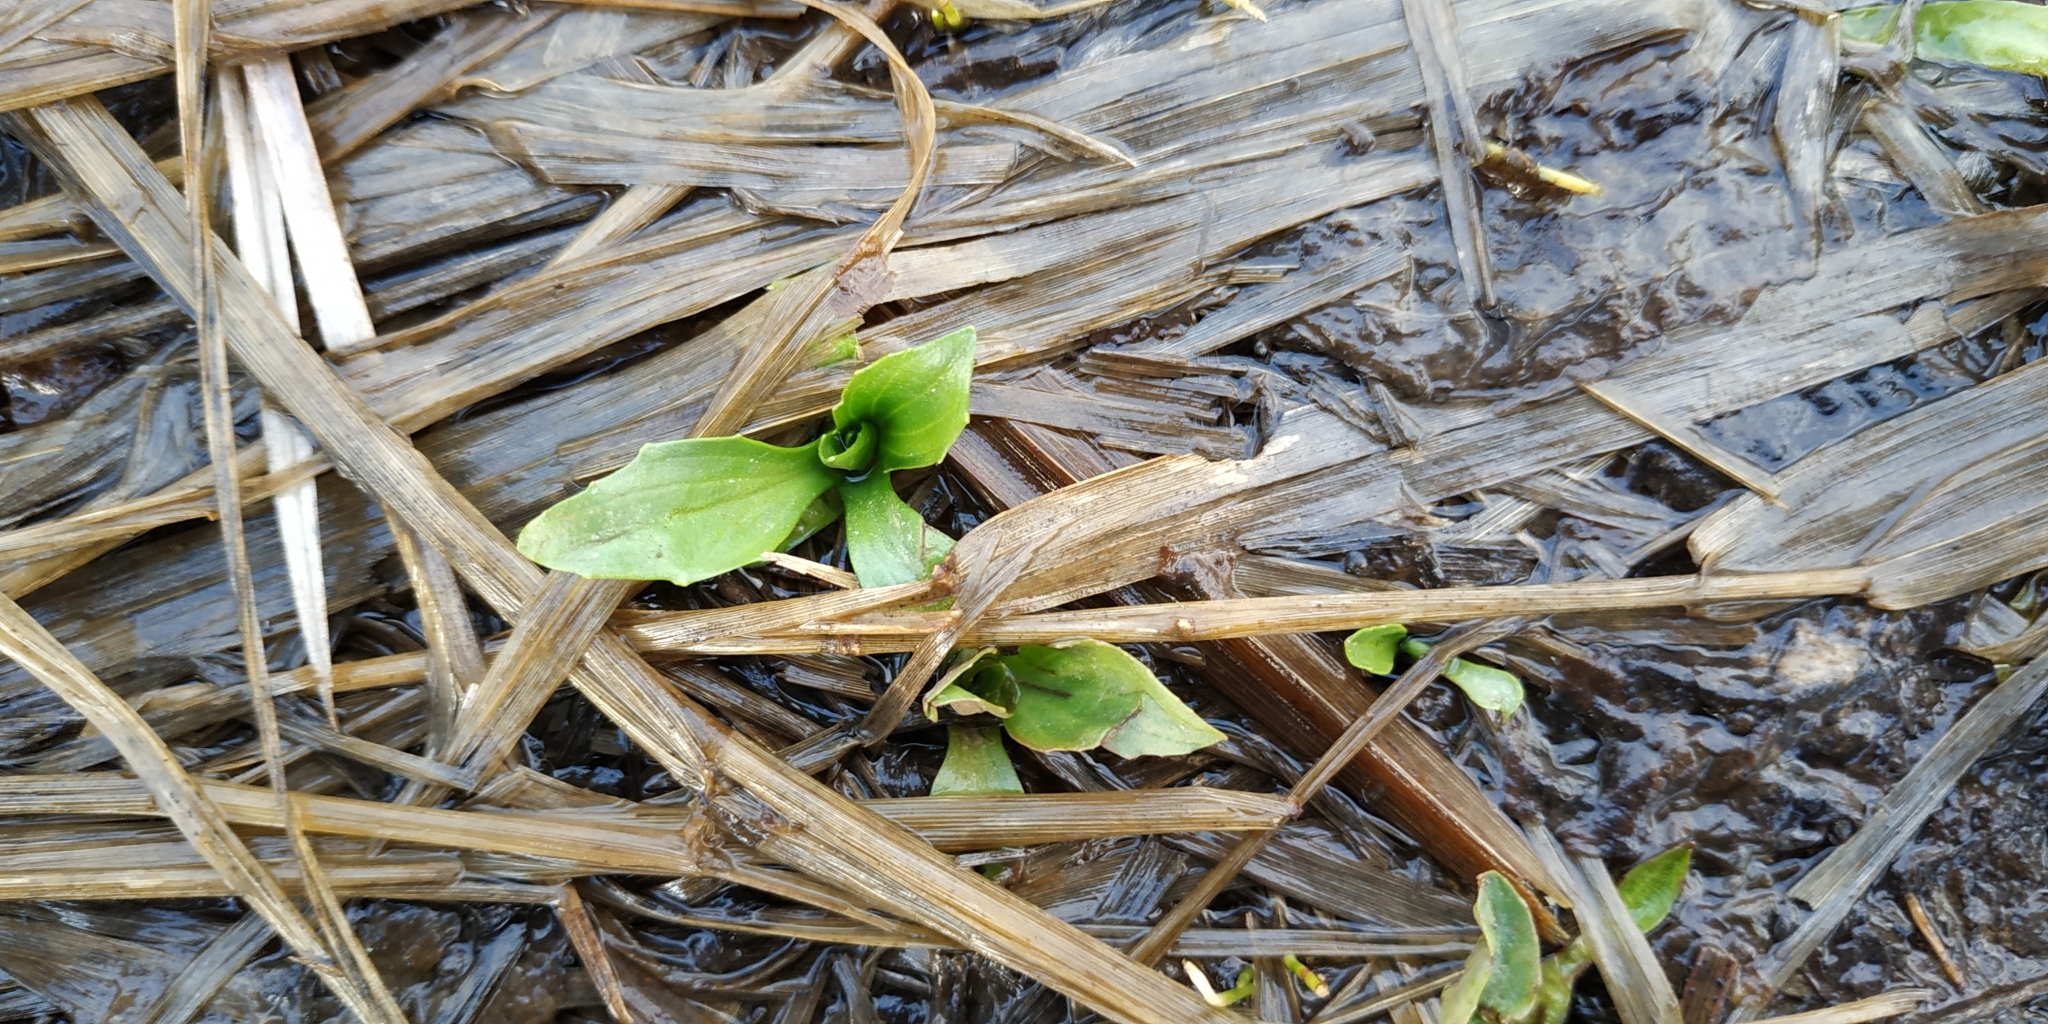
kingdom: Plantae
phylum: Tracheophyta
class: Liliopsida
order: Alismatales
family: Alismataceae
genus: Alisma
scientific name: Alisma plantago-aquatica
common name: Water-plantain
